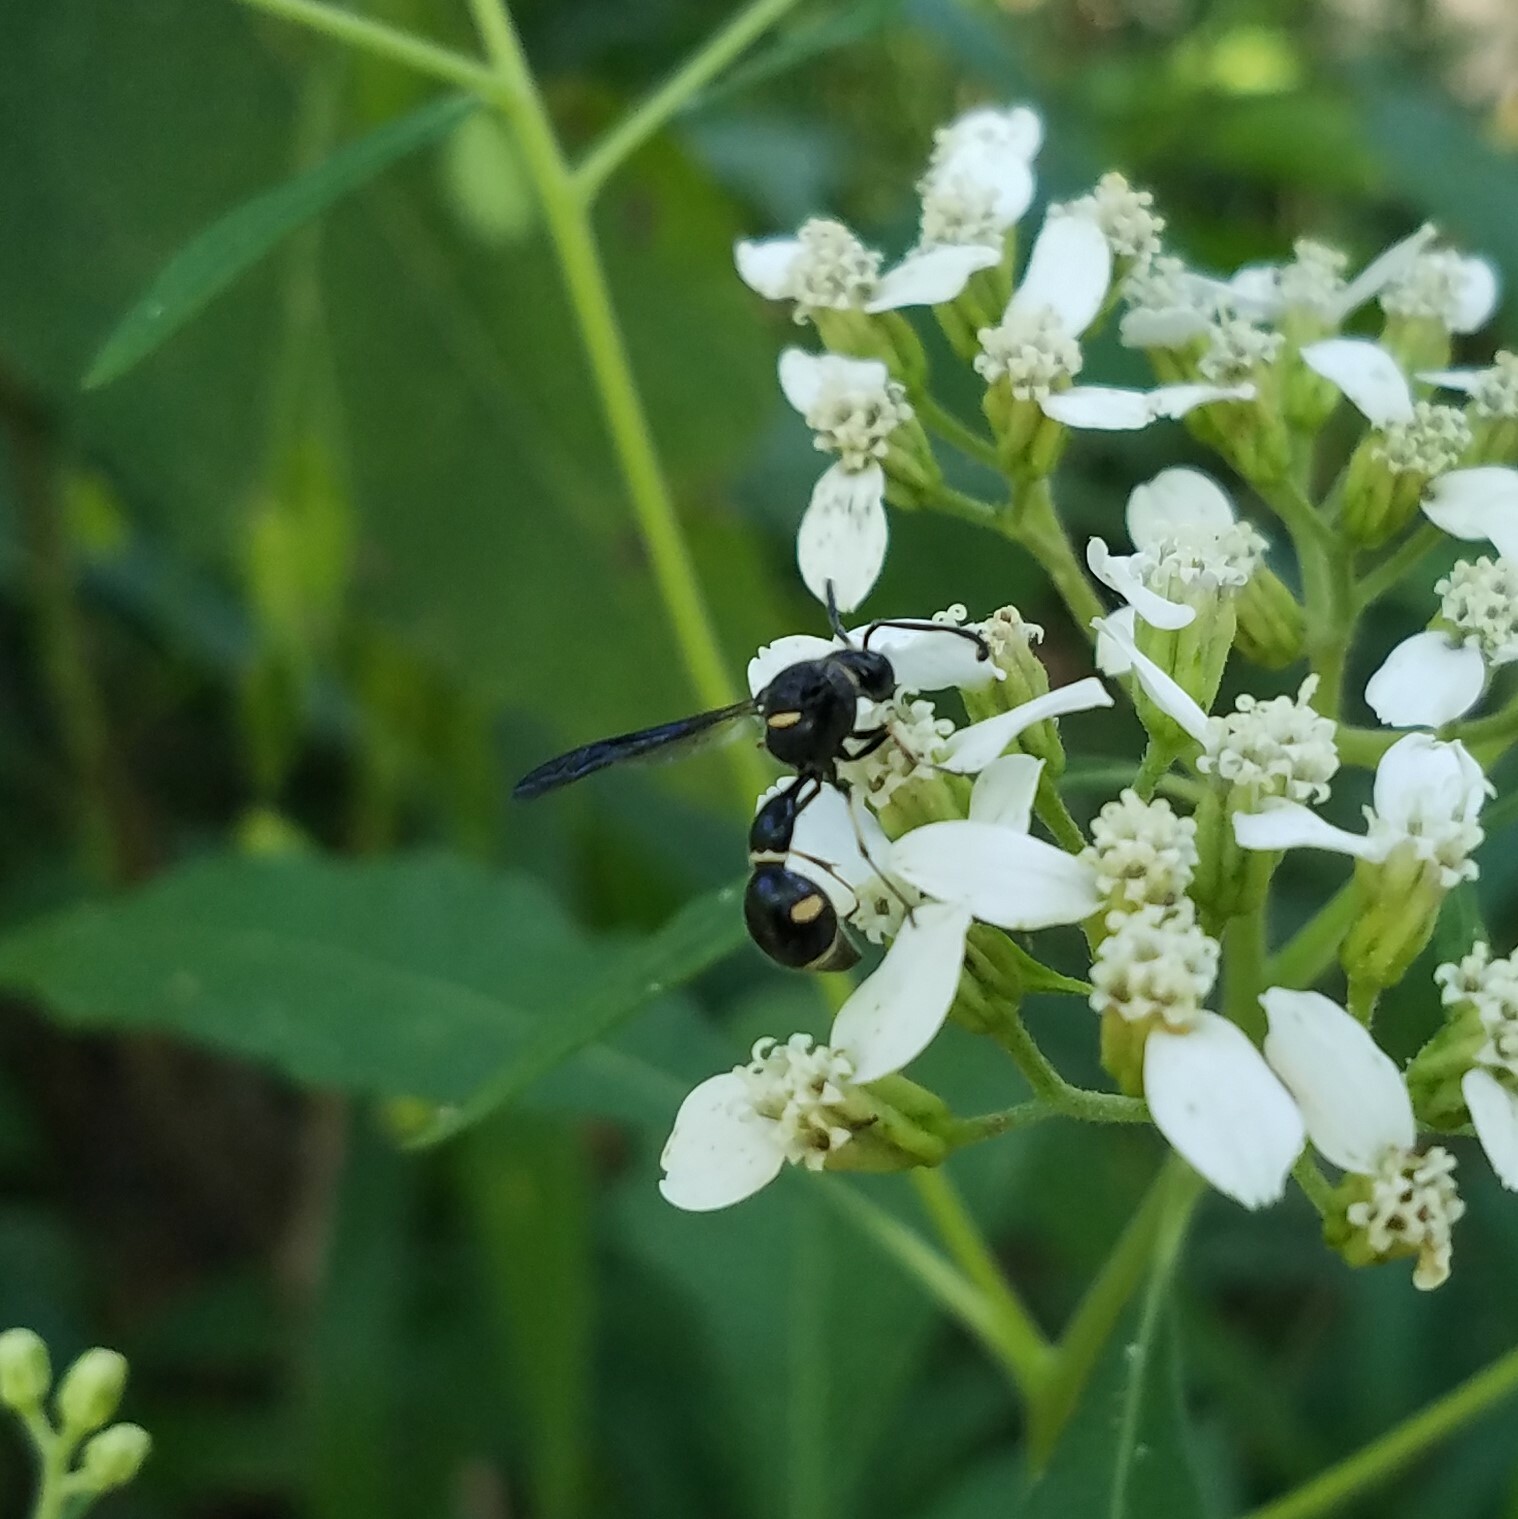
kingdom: Animalia
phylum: Arthropoda
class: Insecta
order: Hymenoptera
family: Vespidae
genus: Eumenes
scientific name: Eumenes fraternus
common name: Fraternal potter wasp
